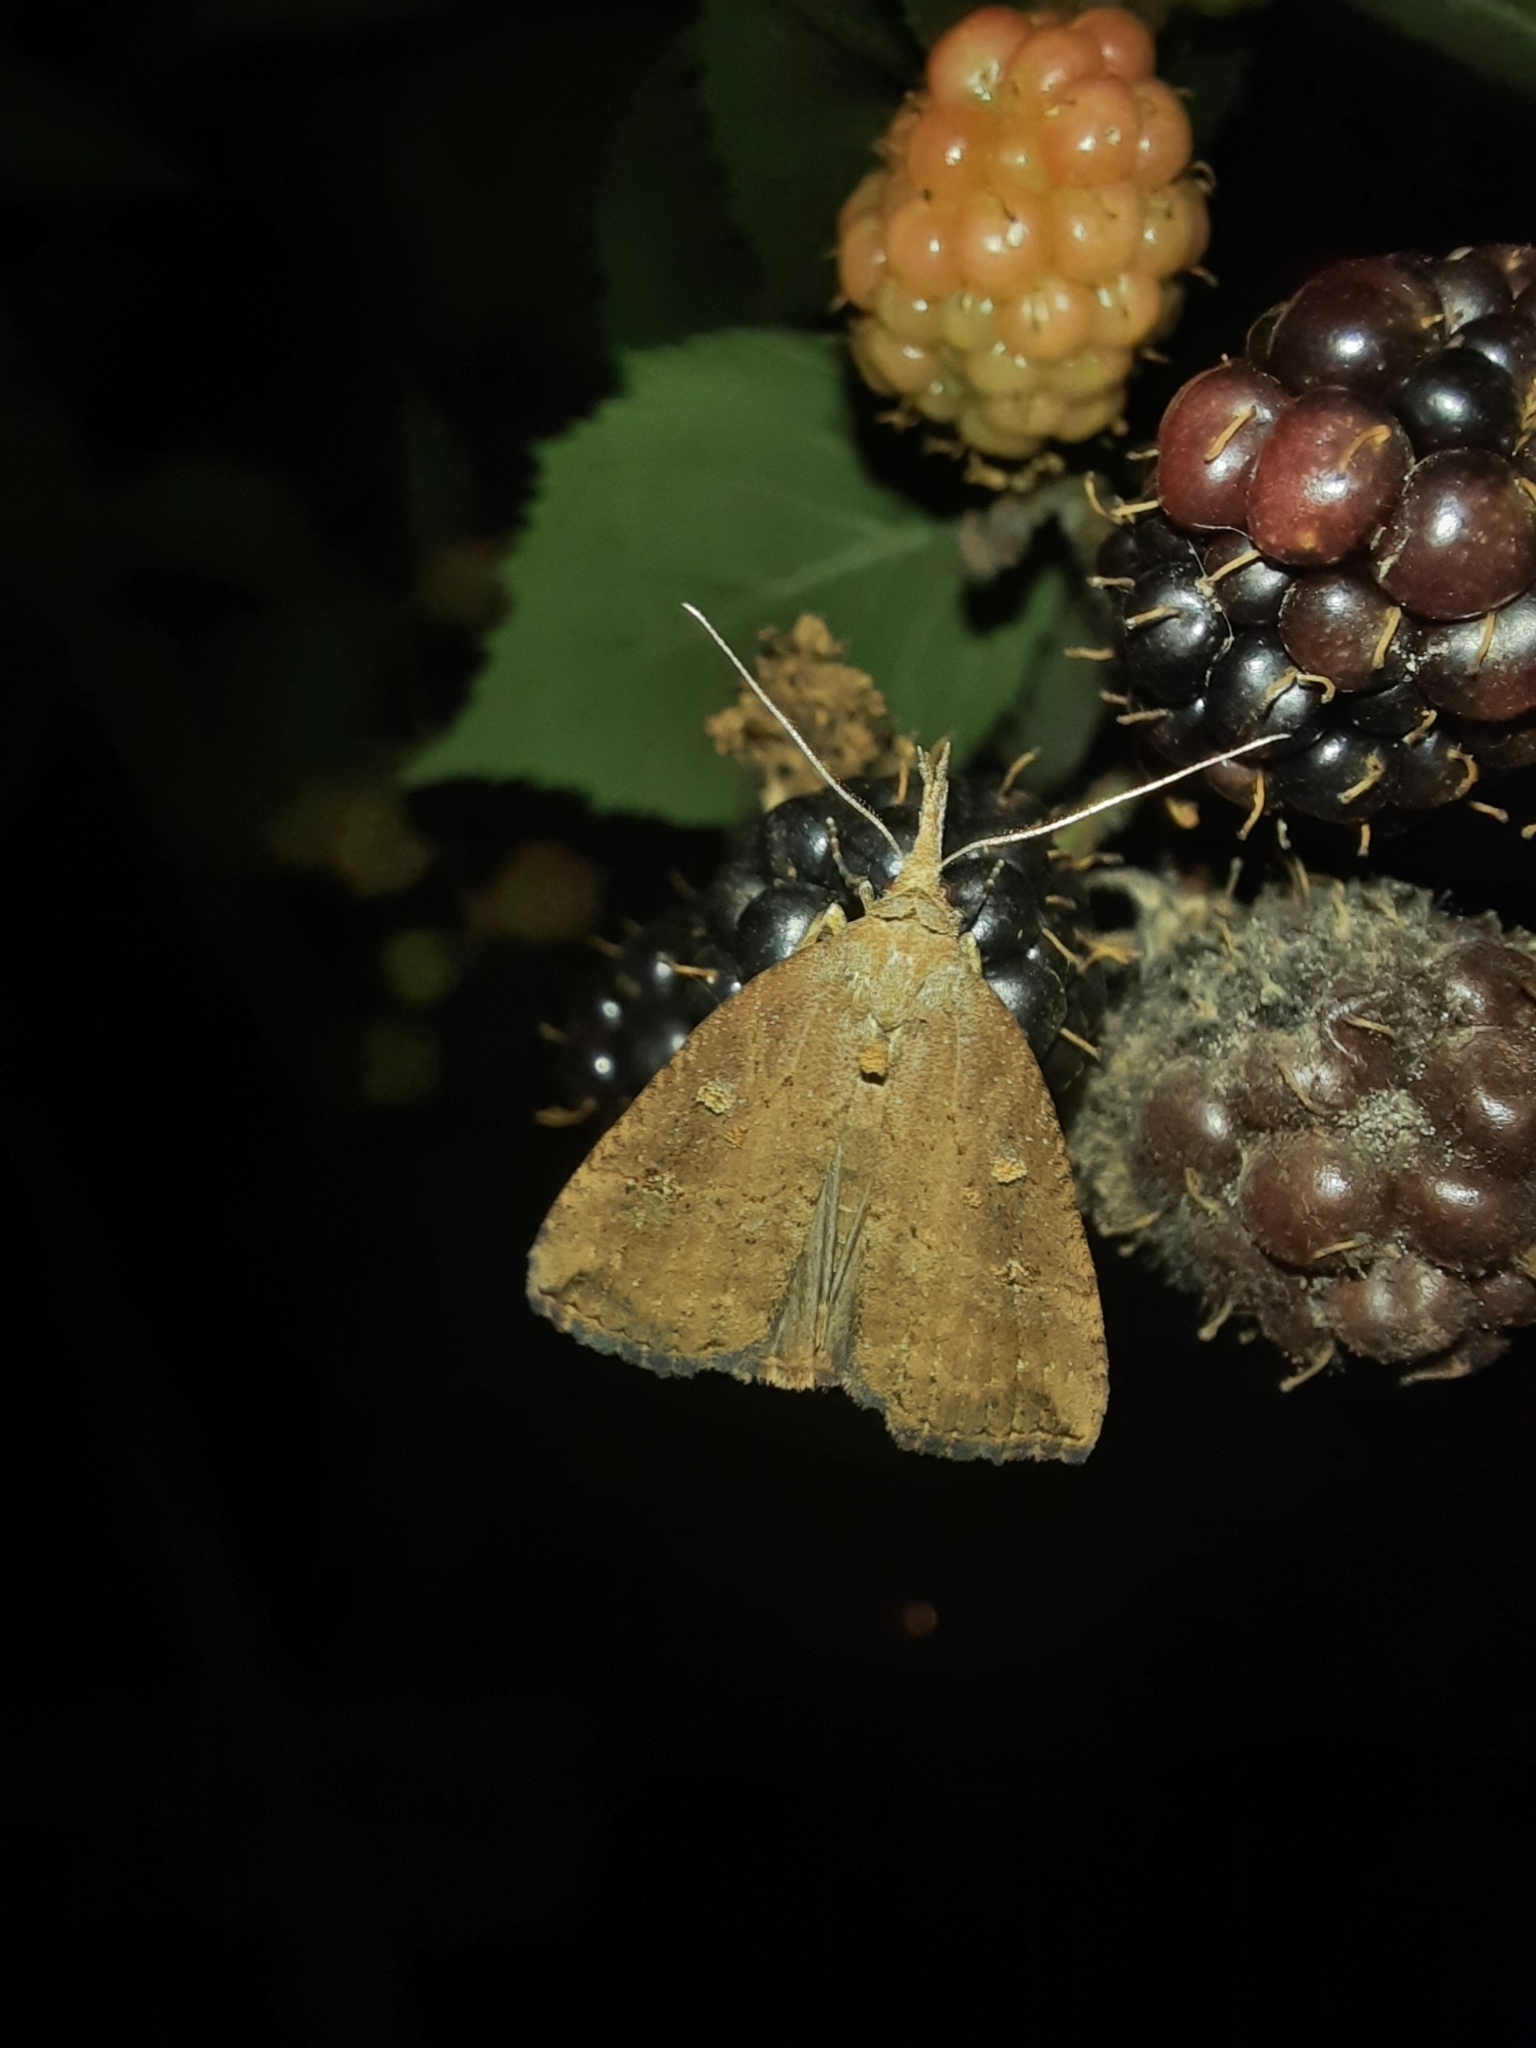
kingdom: Animalia
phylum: Arthropoda
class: Insecta
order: Lepidoptera
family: Erebidae
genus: Hypena
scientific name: Hypena rostralis
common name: Buttoned snout
